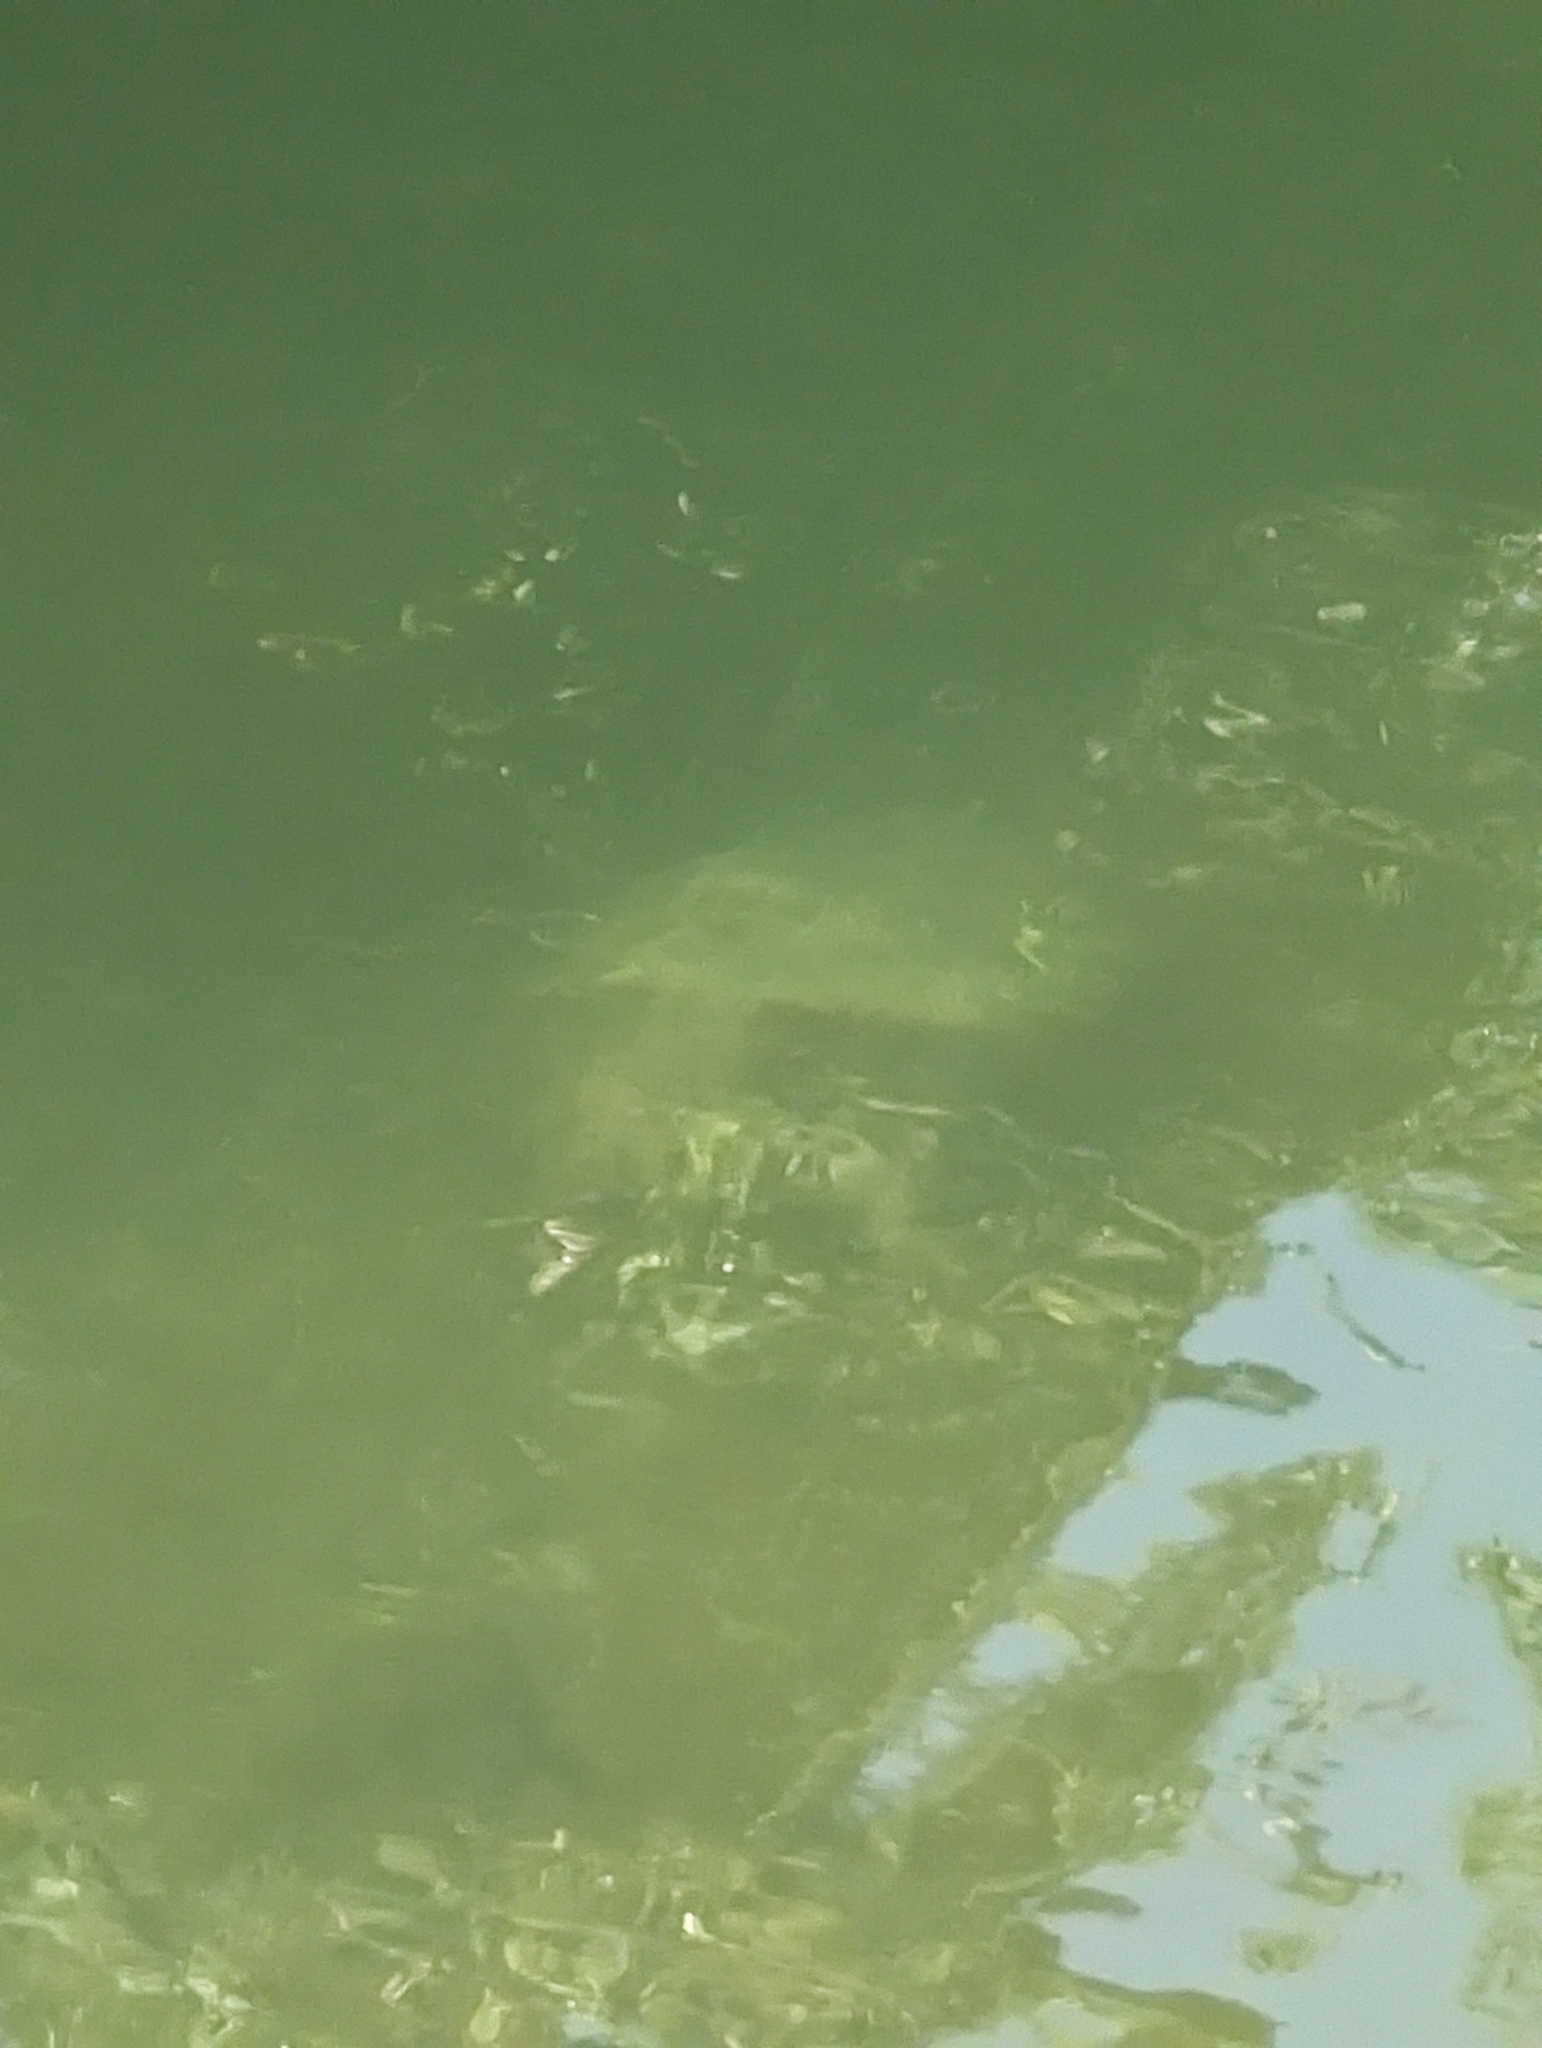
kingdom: Animalia
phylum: Chordata
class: Testudines
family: Chelydridae
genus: Chelydra
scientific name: Chelydra serpentina
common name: Common snapping turtle
